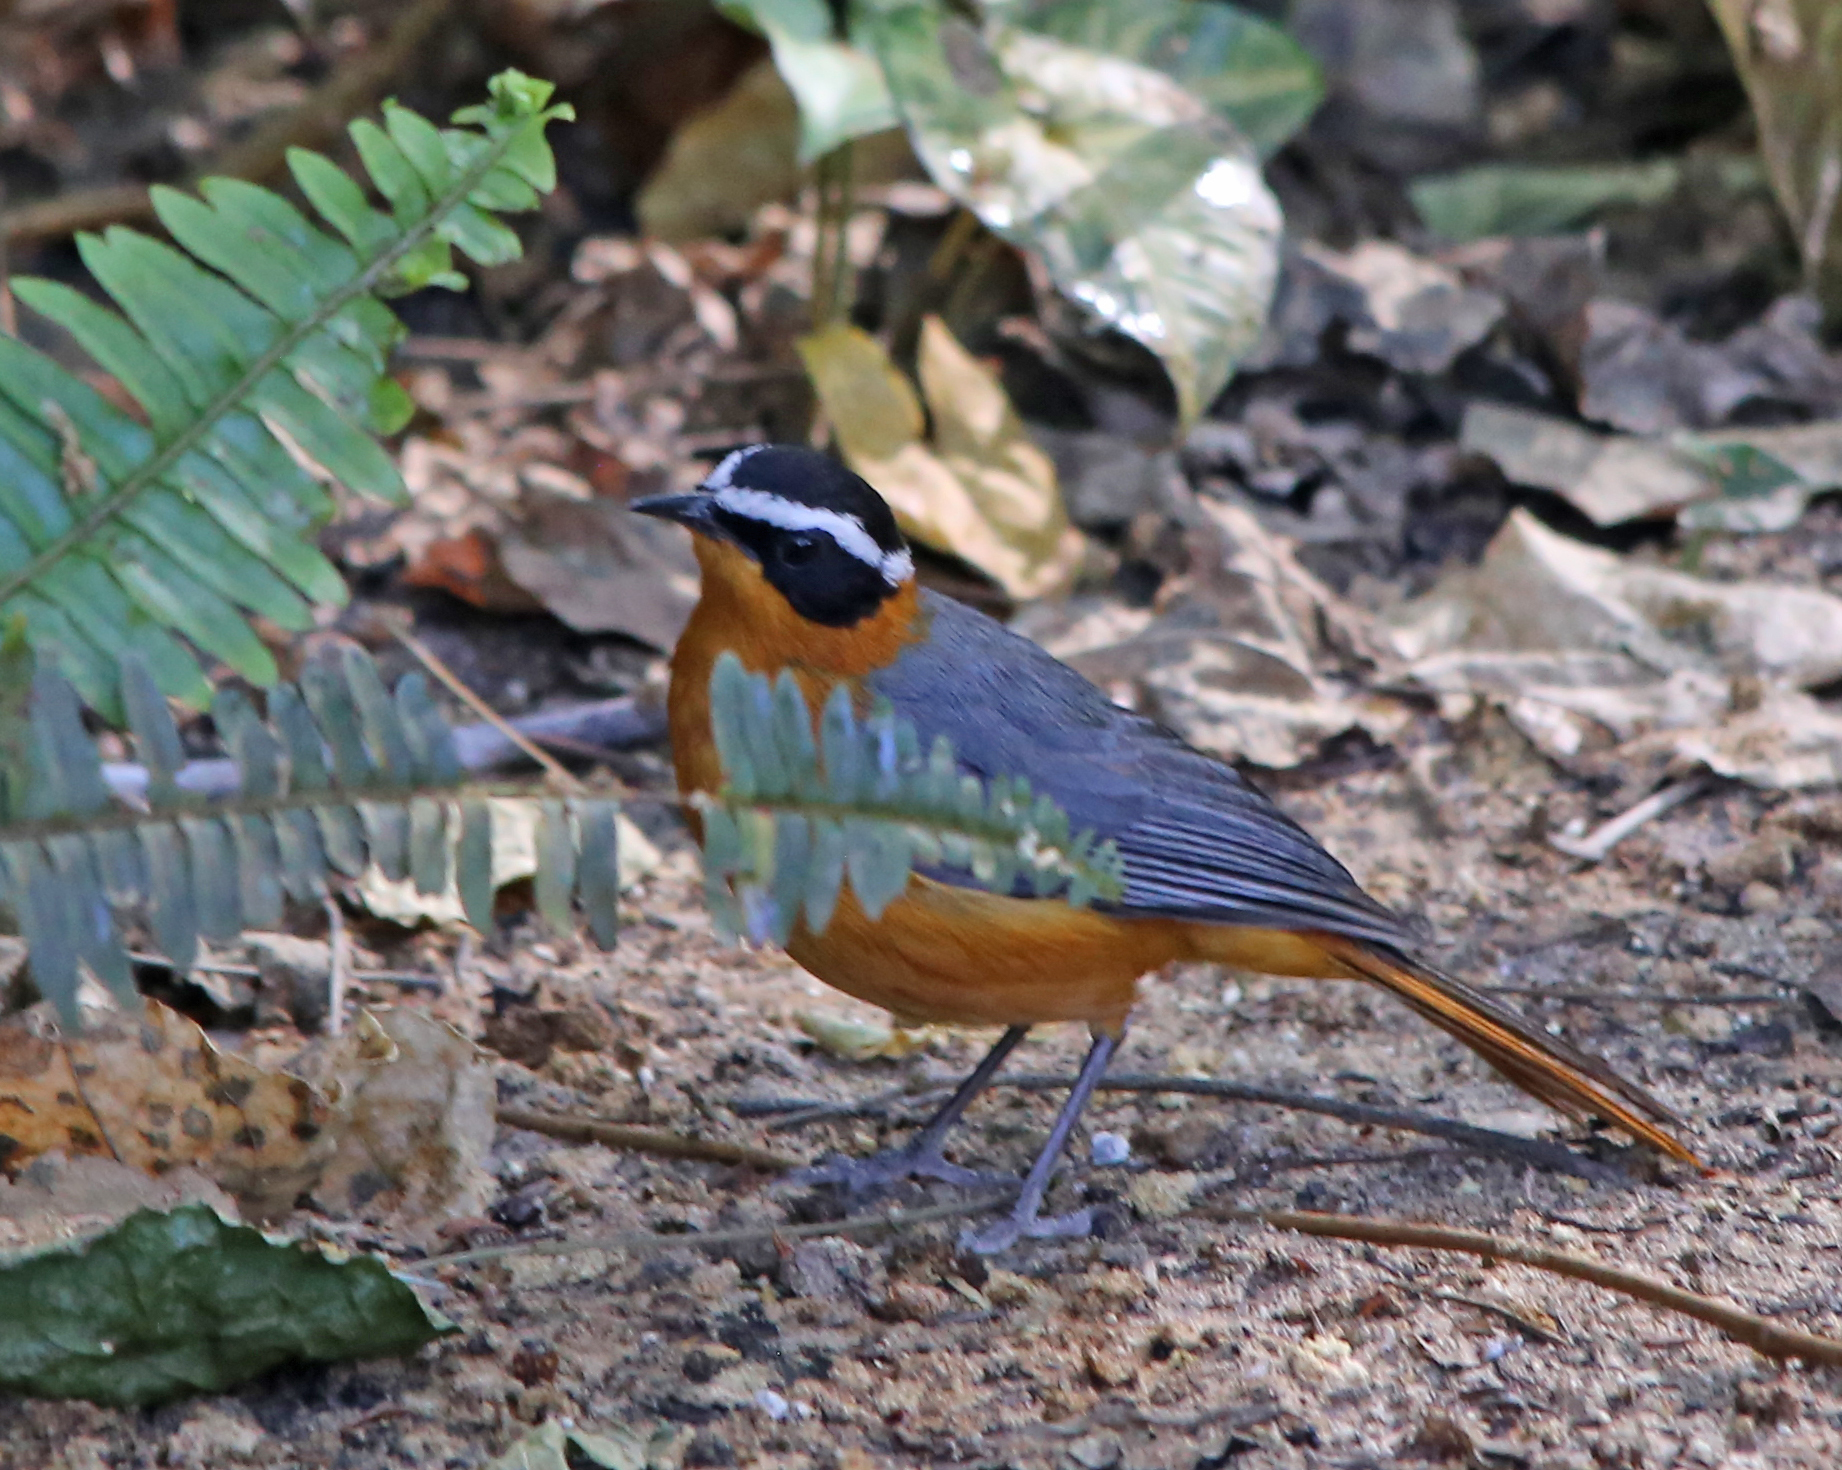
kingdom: Animalia
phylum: Chordata
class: Aves
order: Passeriformes
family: Muscicapidae
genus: Cossypha
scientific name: Cossypha heuglini
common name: White-browed robin-chat
